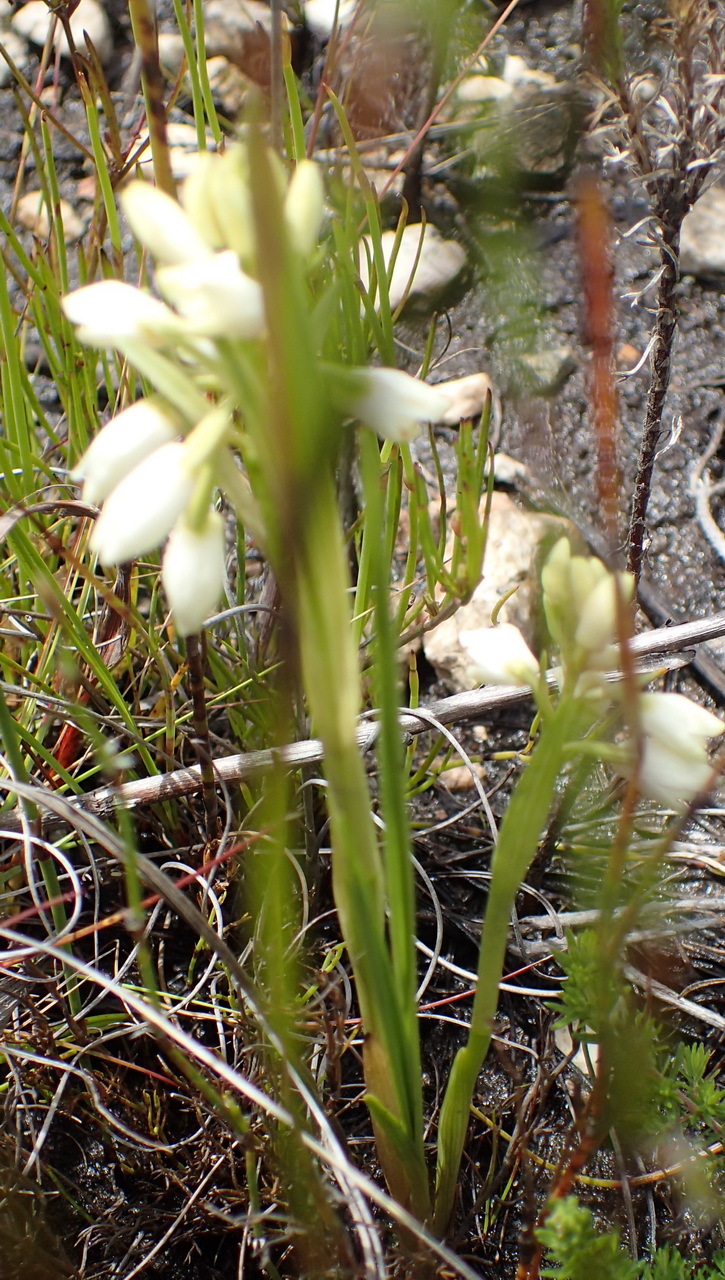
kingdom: Plantae
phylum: Tracheophyta
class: Liliopsida
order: Asparagales
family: Orchidaceae
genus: Eulophia
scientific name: Eulophia aculeata
